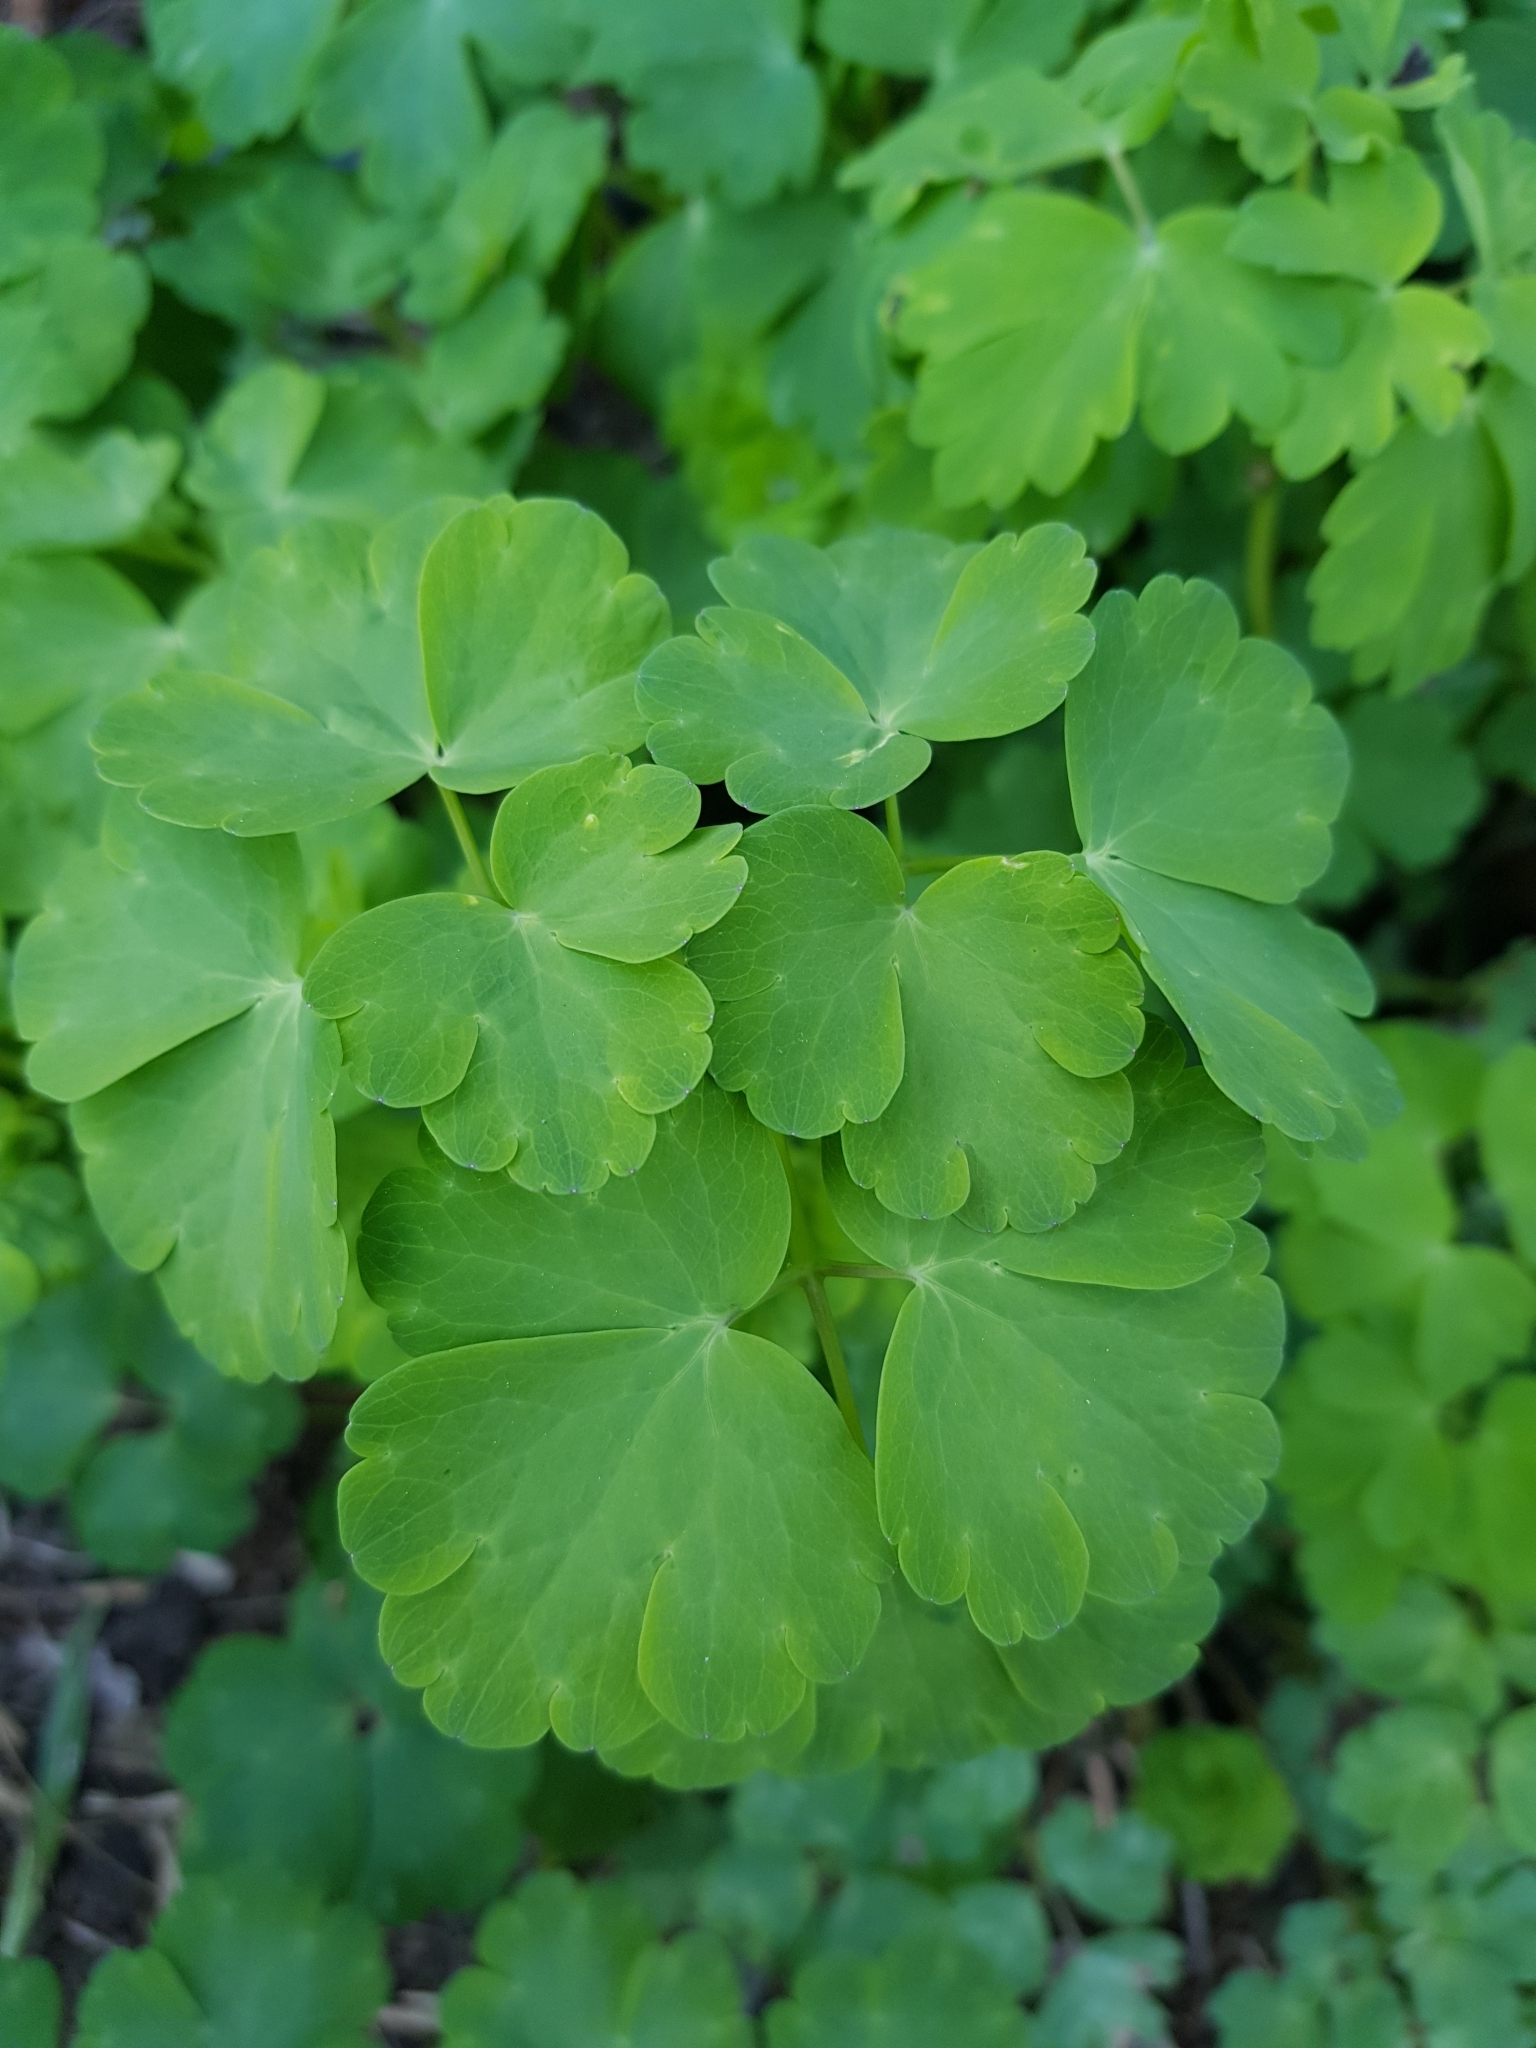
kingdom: Plantae
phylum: Tracheophyta
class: Magnoliopsida
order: Ranunculales
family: Ranunculaceae
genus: Aquilegia
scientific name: Aquilegia vulgaris
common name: Columbine
